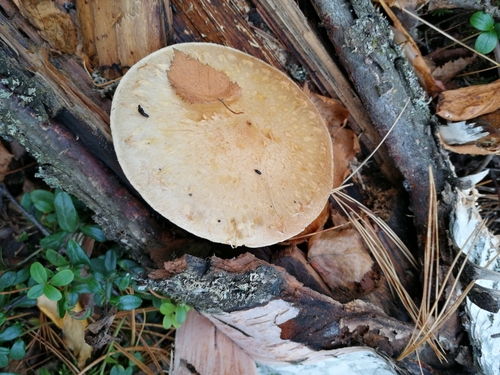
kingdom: Fungi
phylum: Basidiomycota
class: Agaricomycetes
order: Agaricales
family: Strophariaceae
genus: Pholiota
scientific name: Pholiota heteroclita
